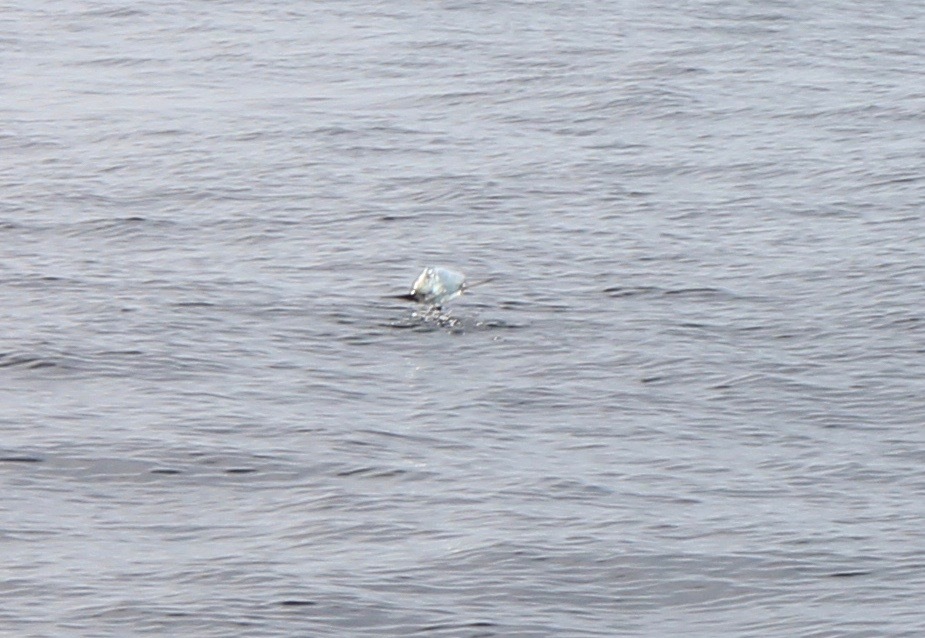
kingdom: Animalia
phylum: Chordata
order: Tetraodontiformes
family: Molidae
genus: Mola
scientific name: Mola mola
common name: Ocean sunfish
